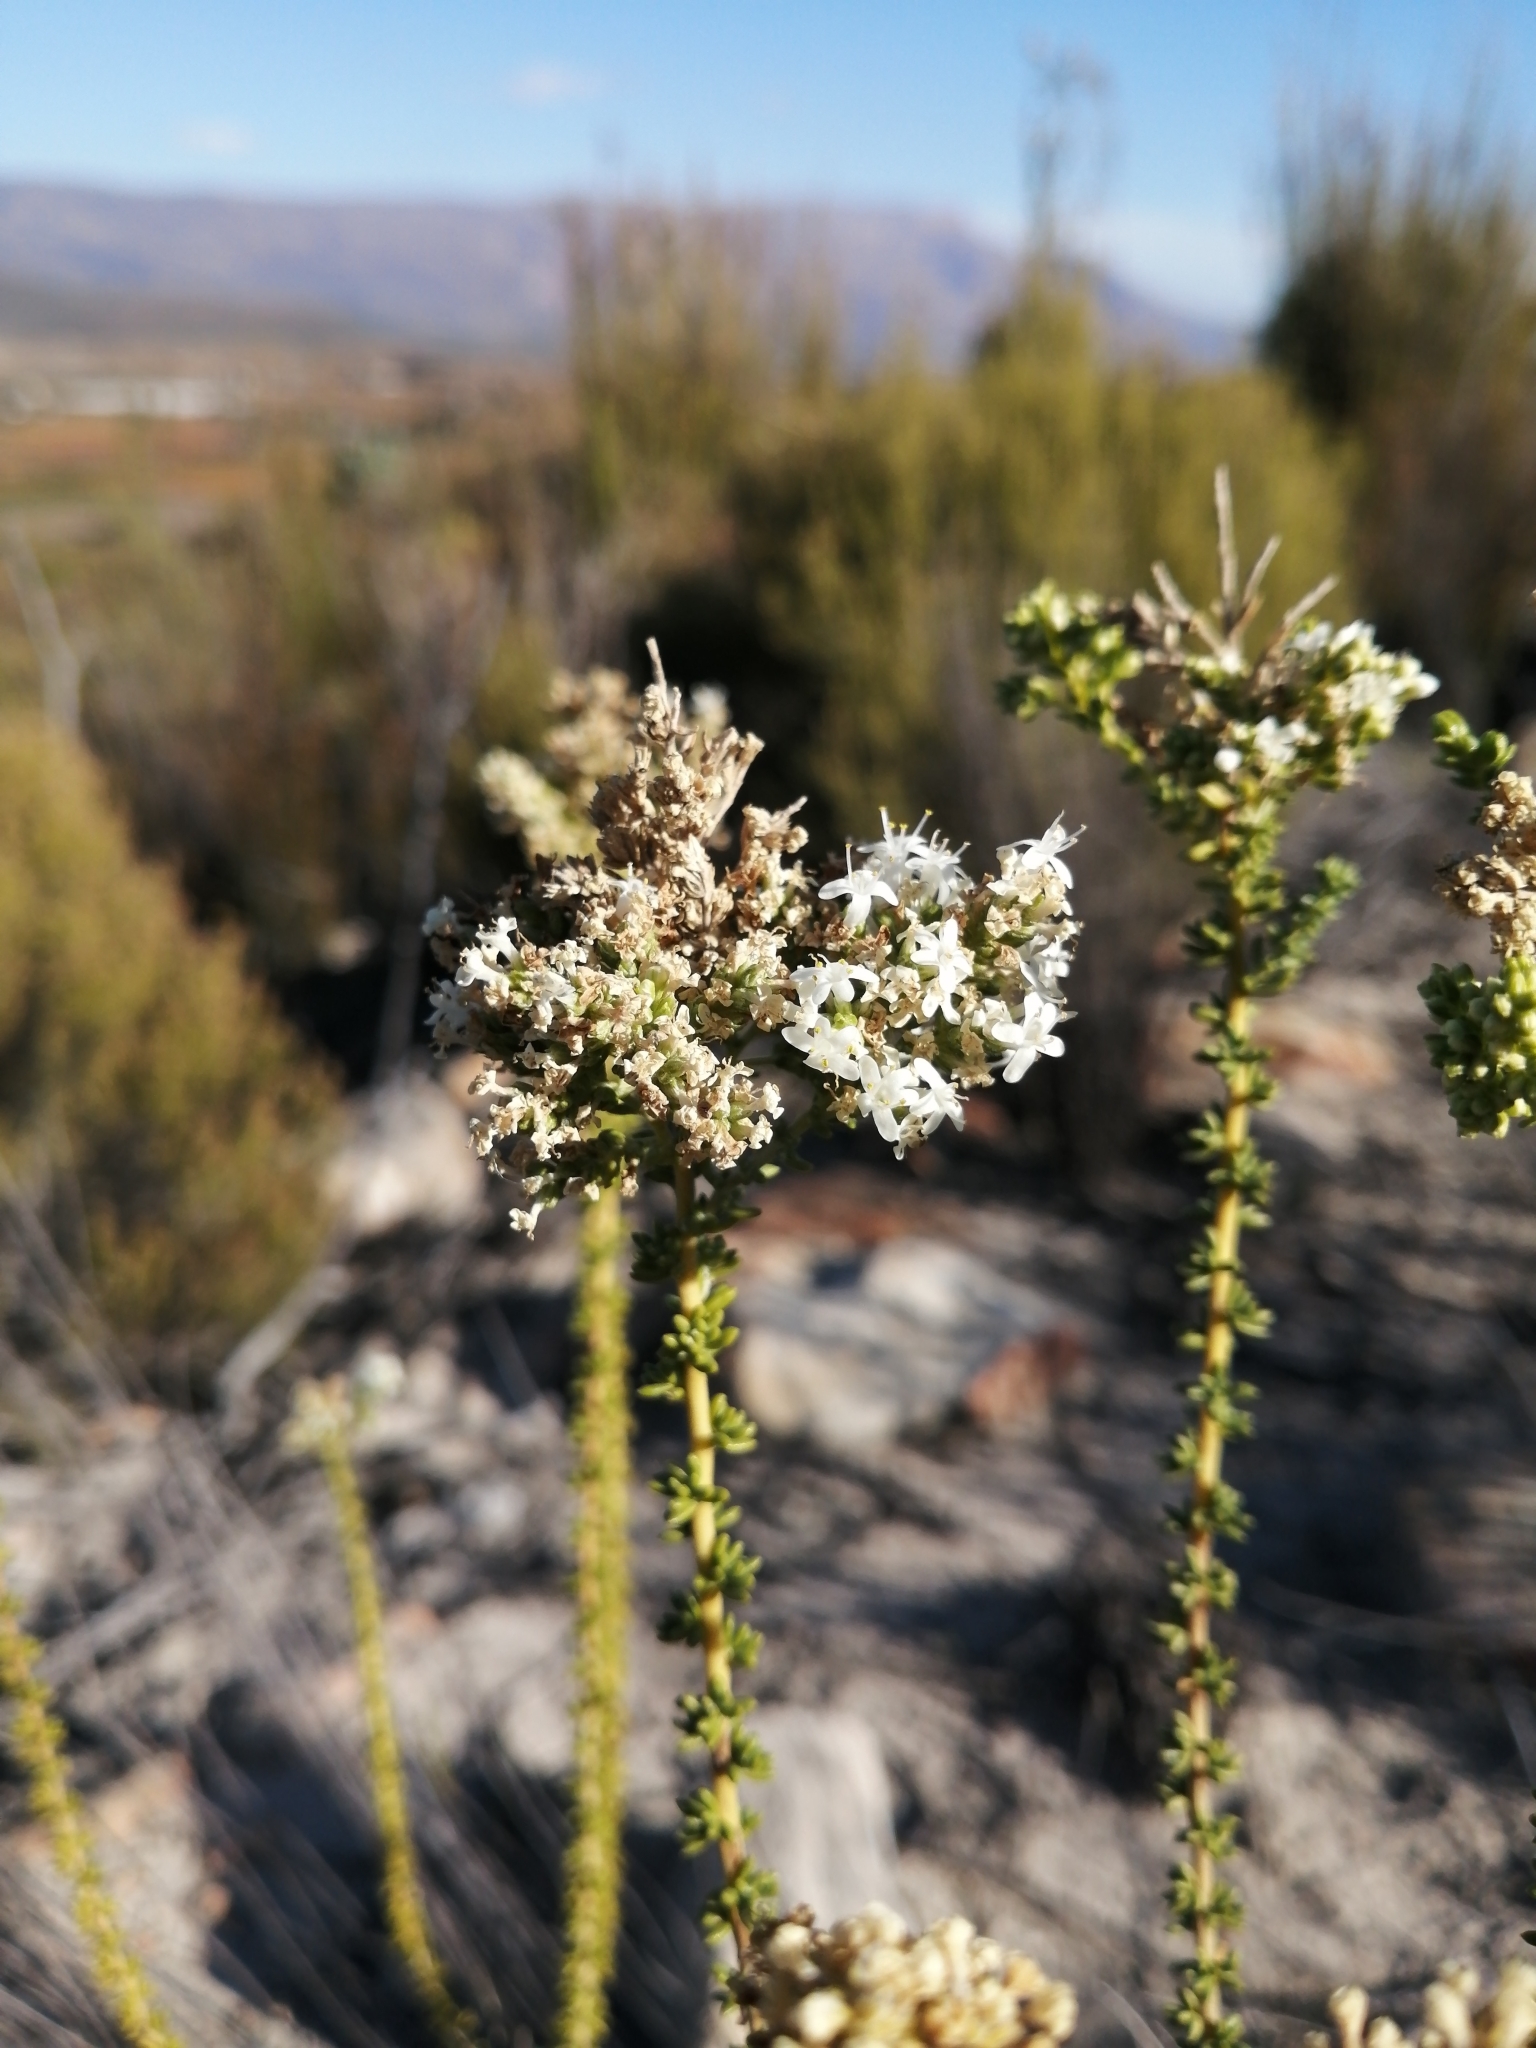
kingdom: Plantae
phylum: Tracheophyta
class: Magnoliopsida
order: Lamiales
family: Scrophulariaceae
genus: Selago
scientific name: Selago singularis
